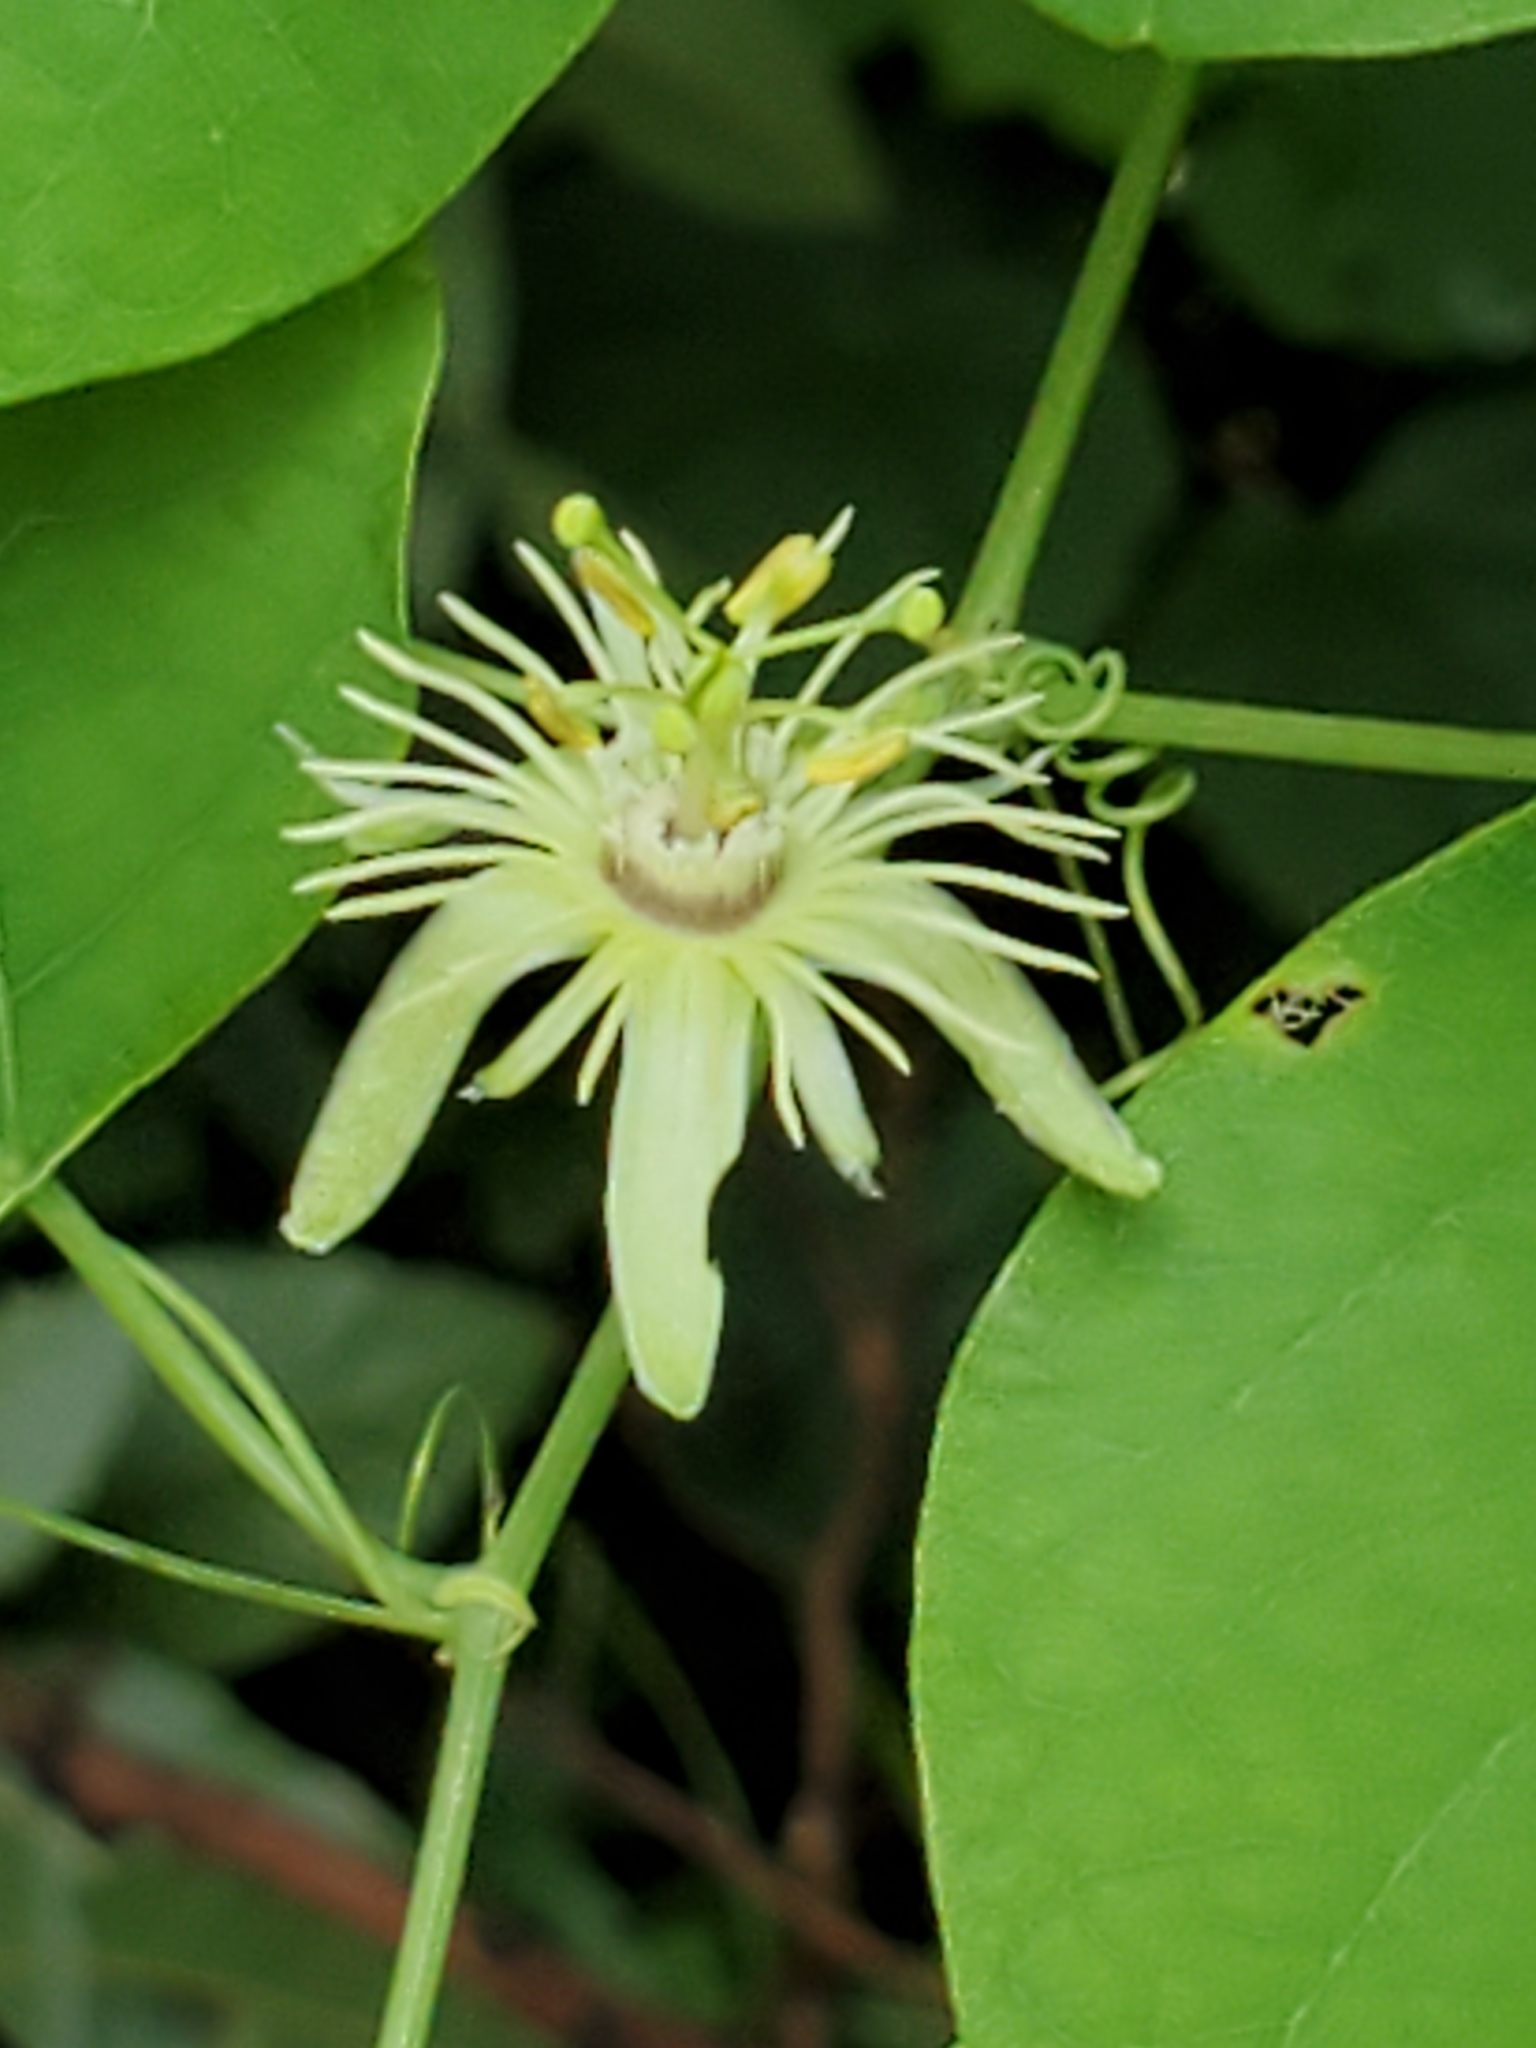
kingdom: Plantae
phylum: Tracheophyta
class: Magnoliopsida
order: Malpighiales
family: Passifloraceae
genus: Passiflora
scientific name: Passiflora lutea
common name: Yellow passionflower
